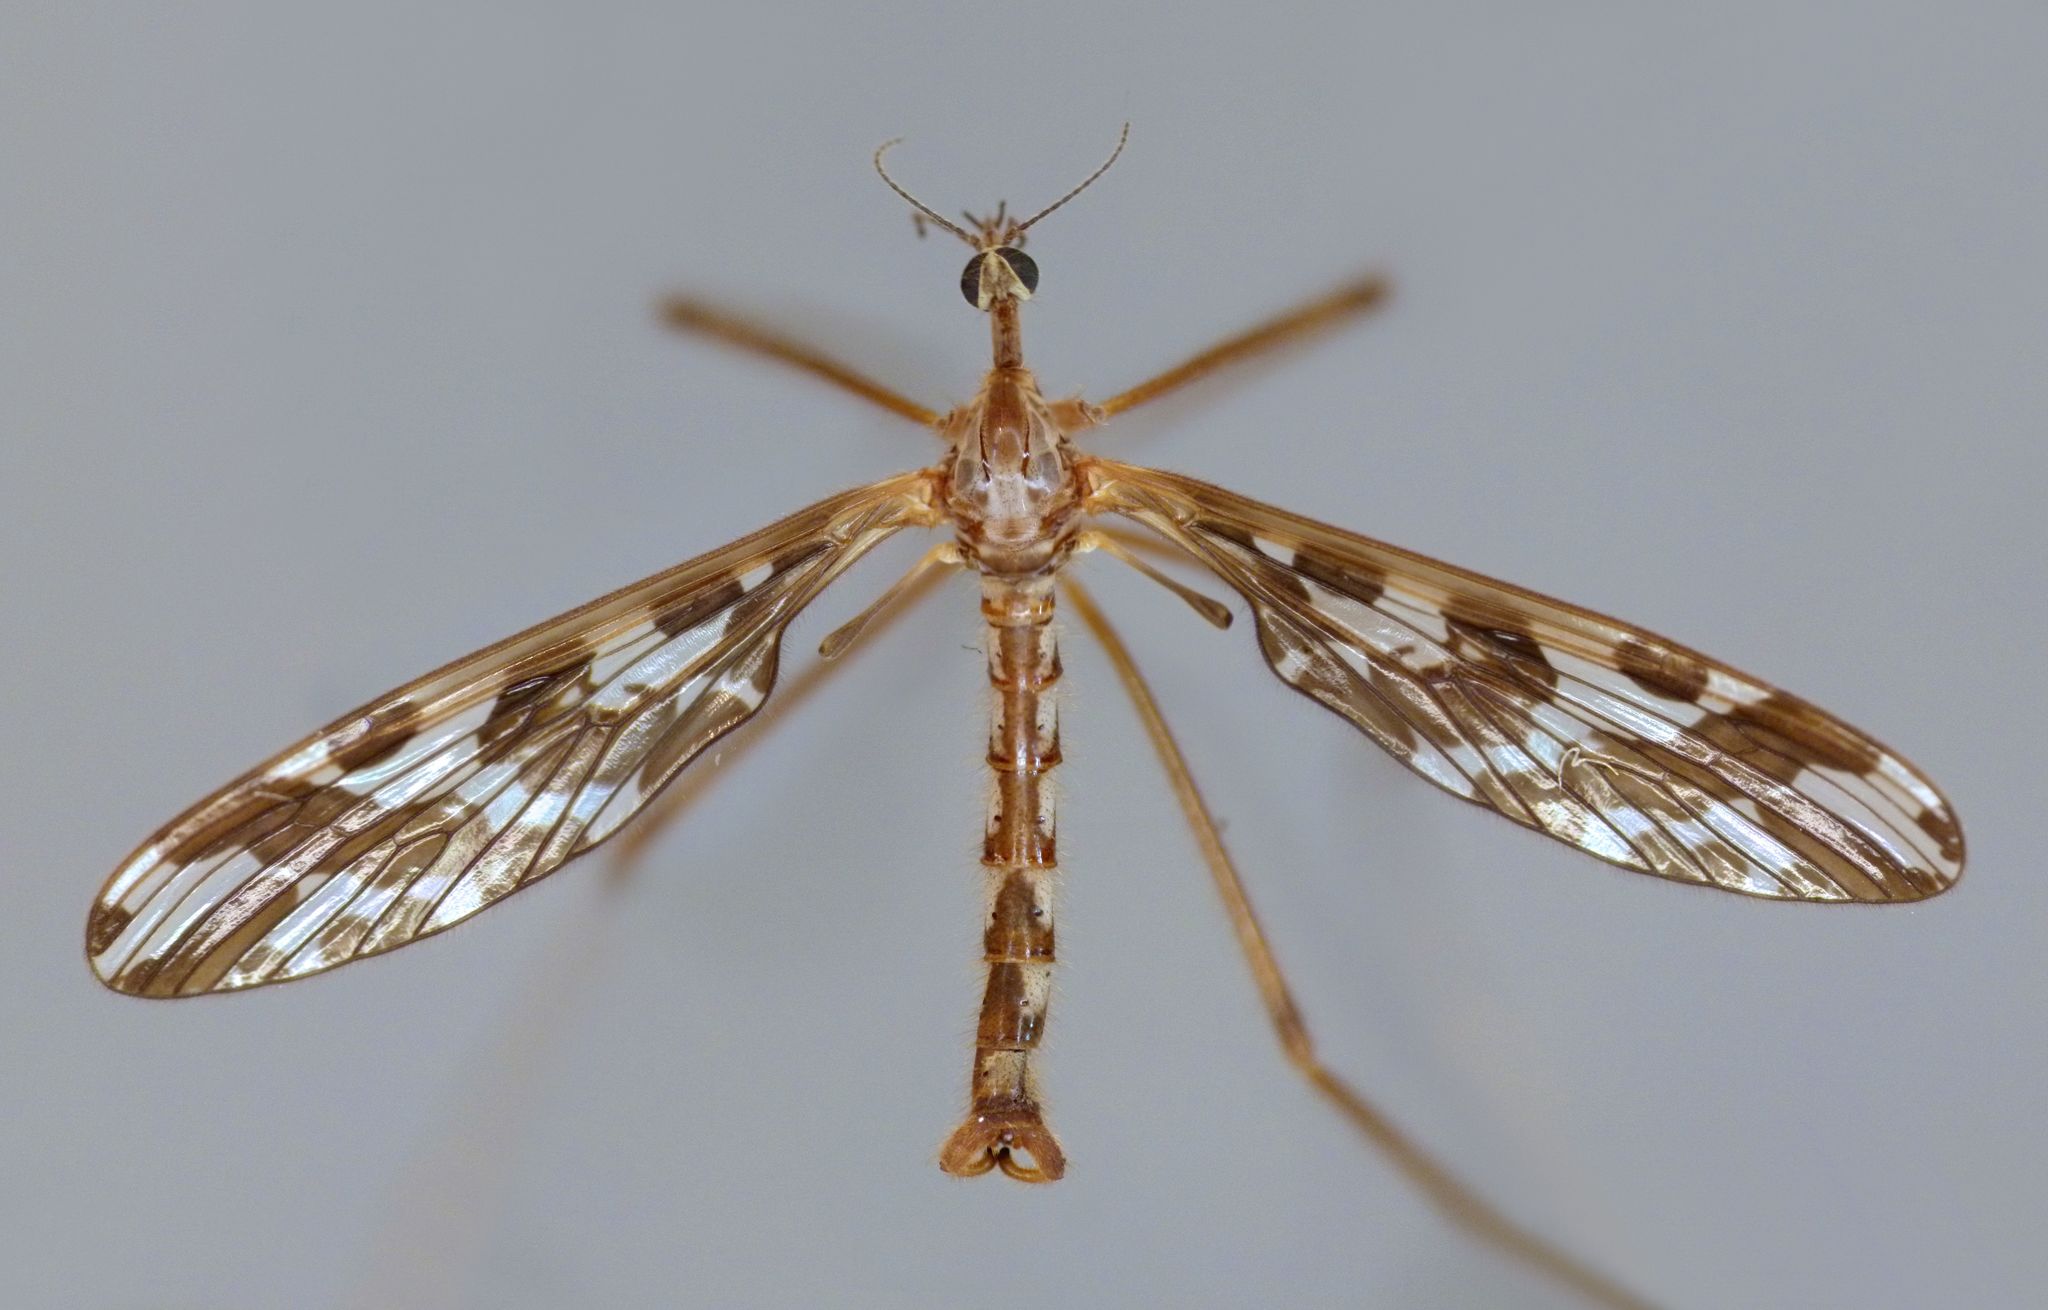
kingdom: Animalia
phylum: Arthropoda
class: Insecta
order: Diptera
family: Tanyderidae
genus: Tanyderus
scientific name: Tanyderus forcipatus
